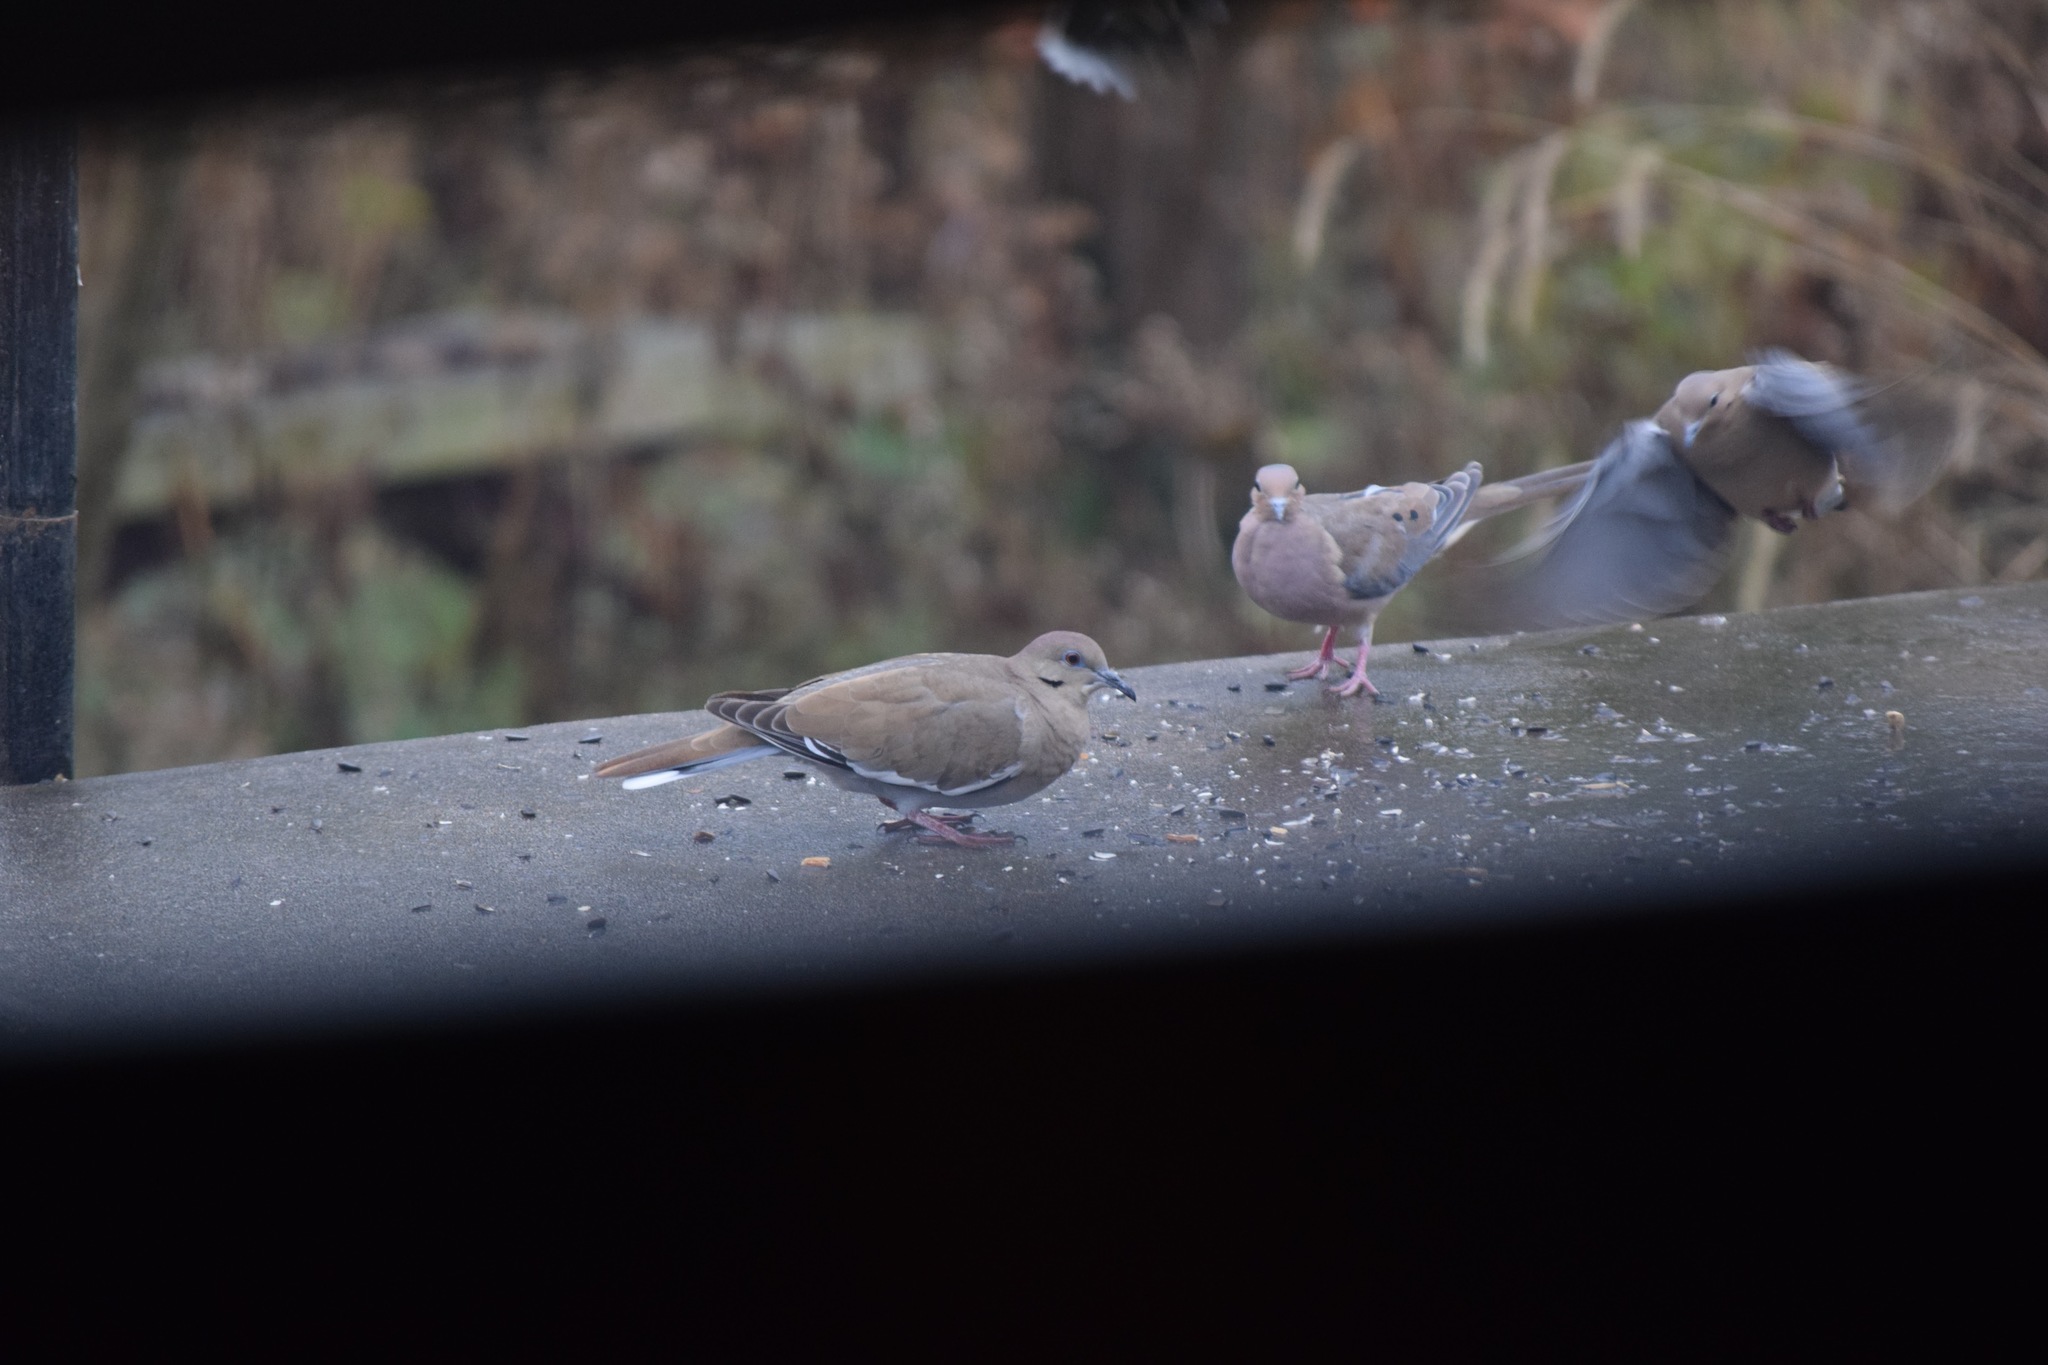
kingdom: Animalia
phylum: Chordata
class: Aves
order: Columbiformes
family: Columbidae
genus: Zenaida
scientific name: Zenaida asiatica
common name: White-winged dove
